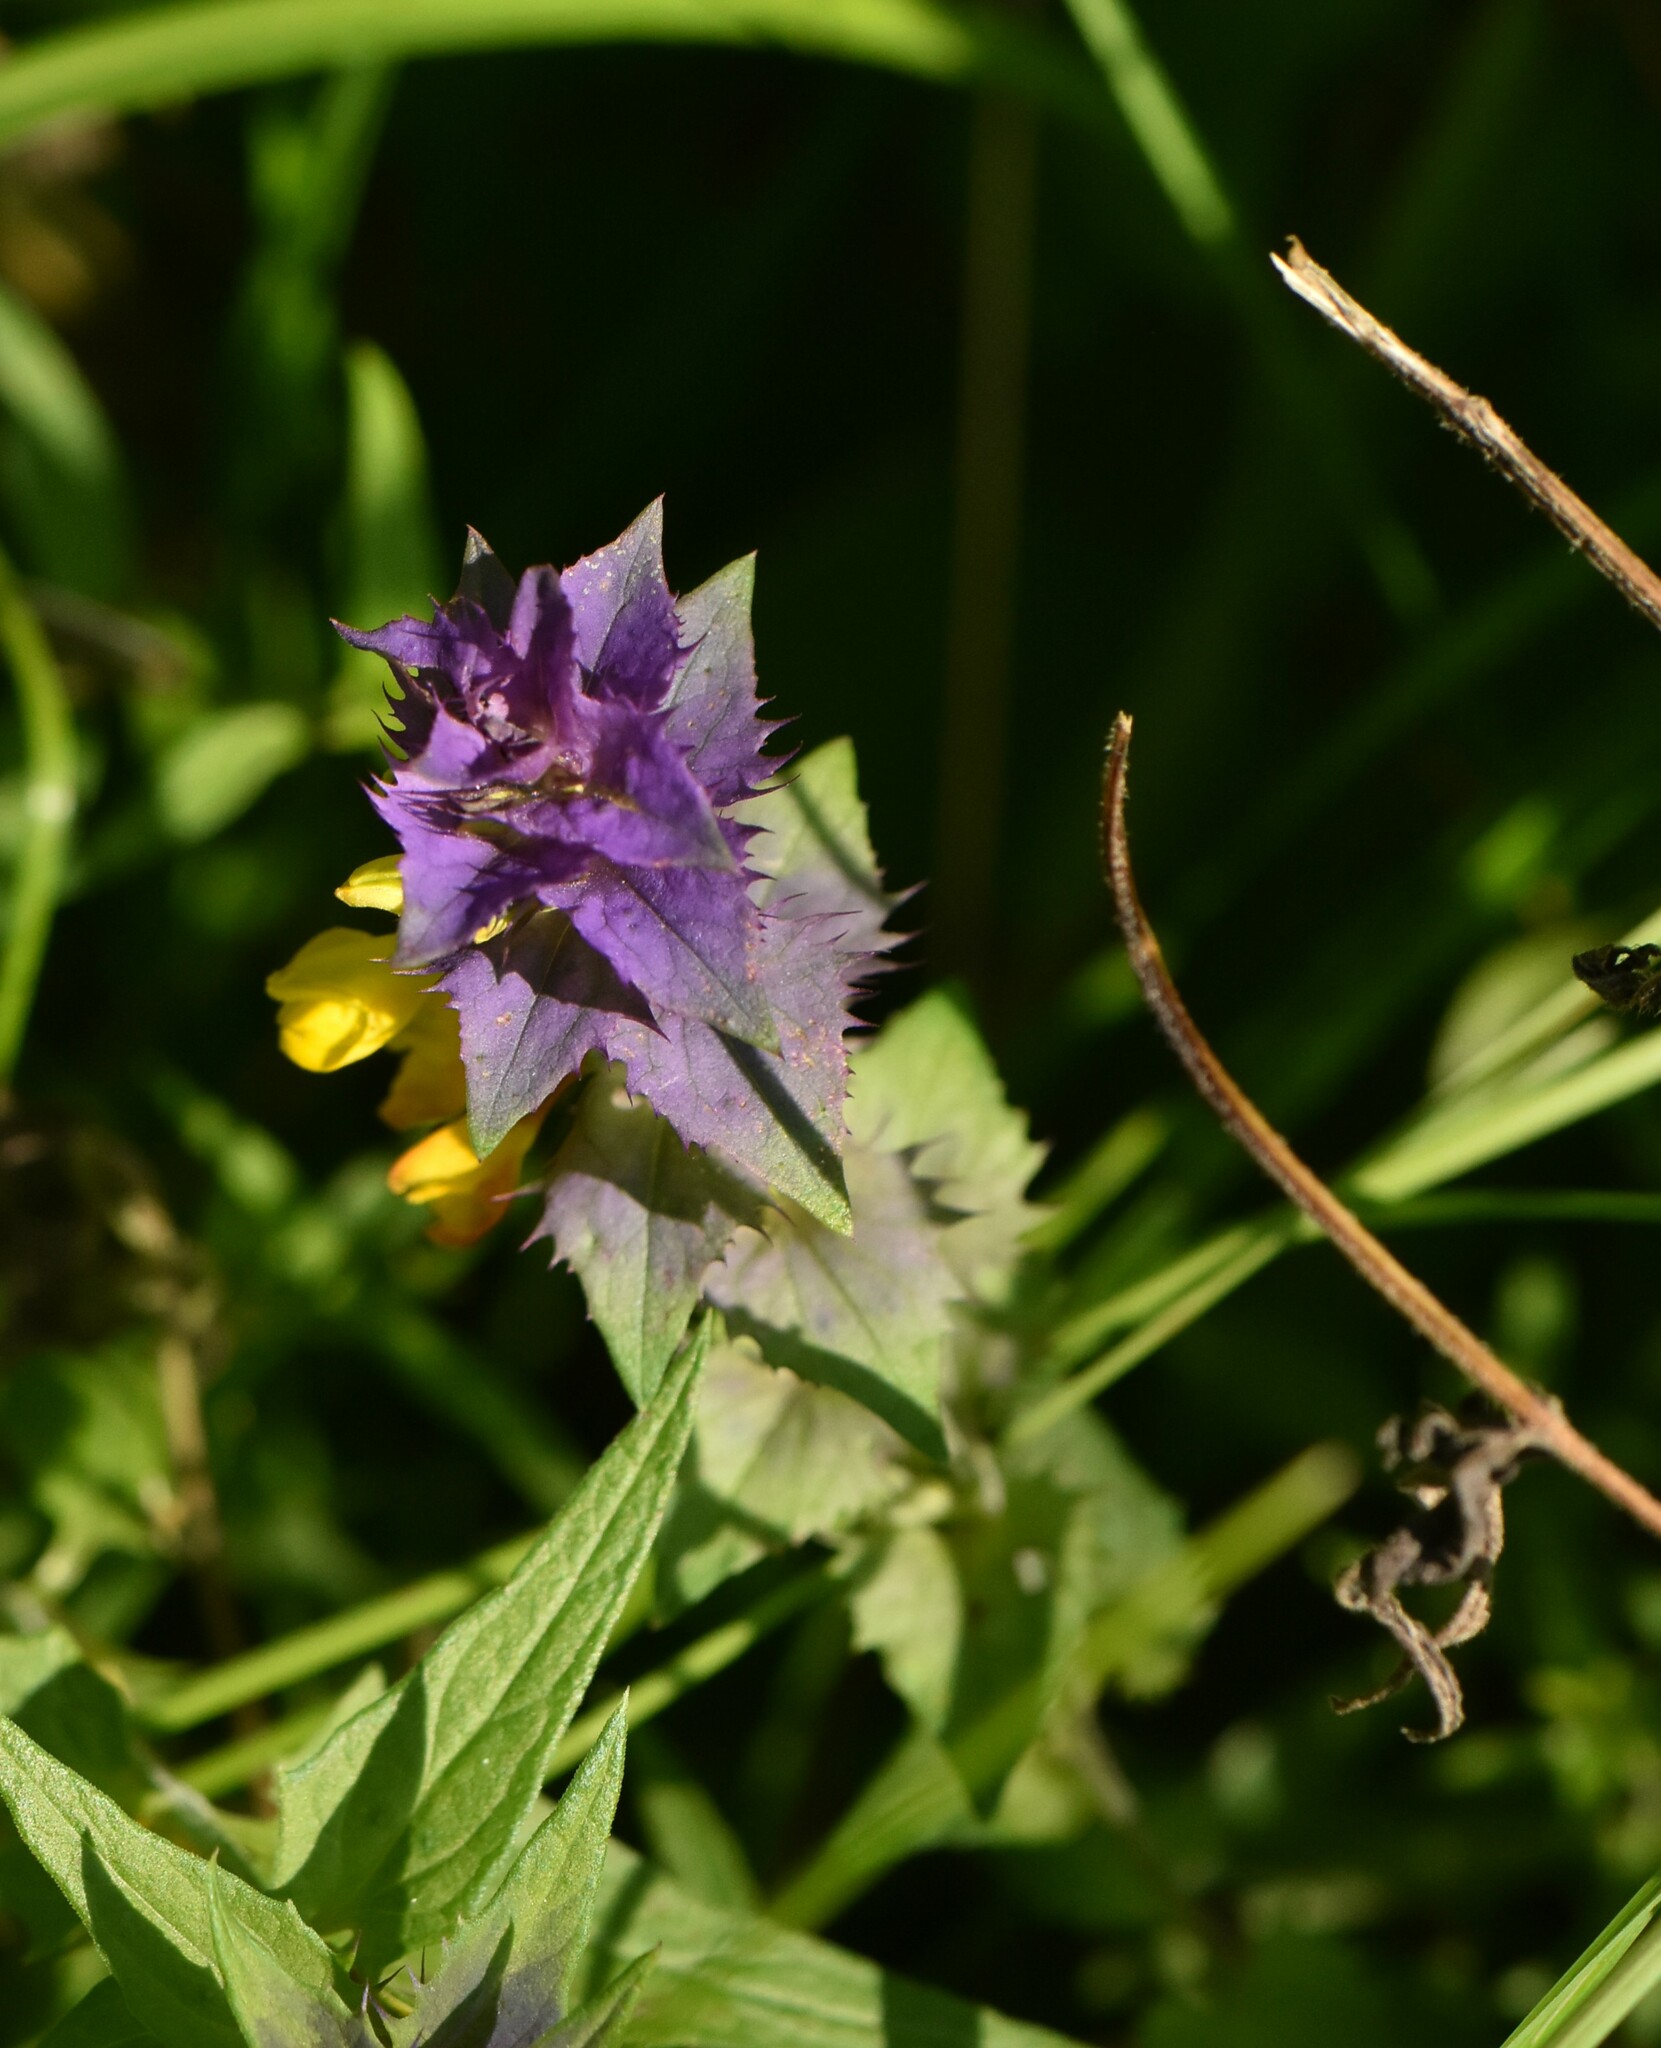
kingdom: Plantae
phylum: Tracheophyta
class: Magnoliopsida
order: Lamiales
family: Orobanchaceae
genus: Melampyrum
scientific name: Melampyrum nemorosum
